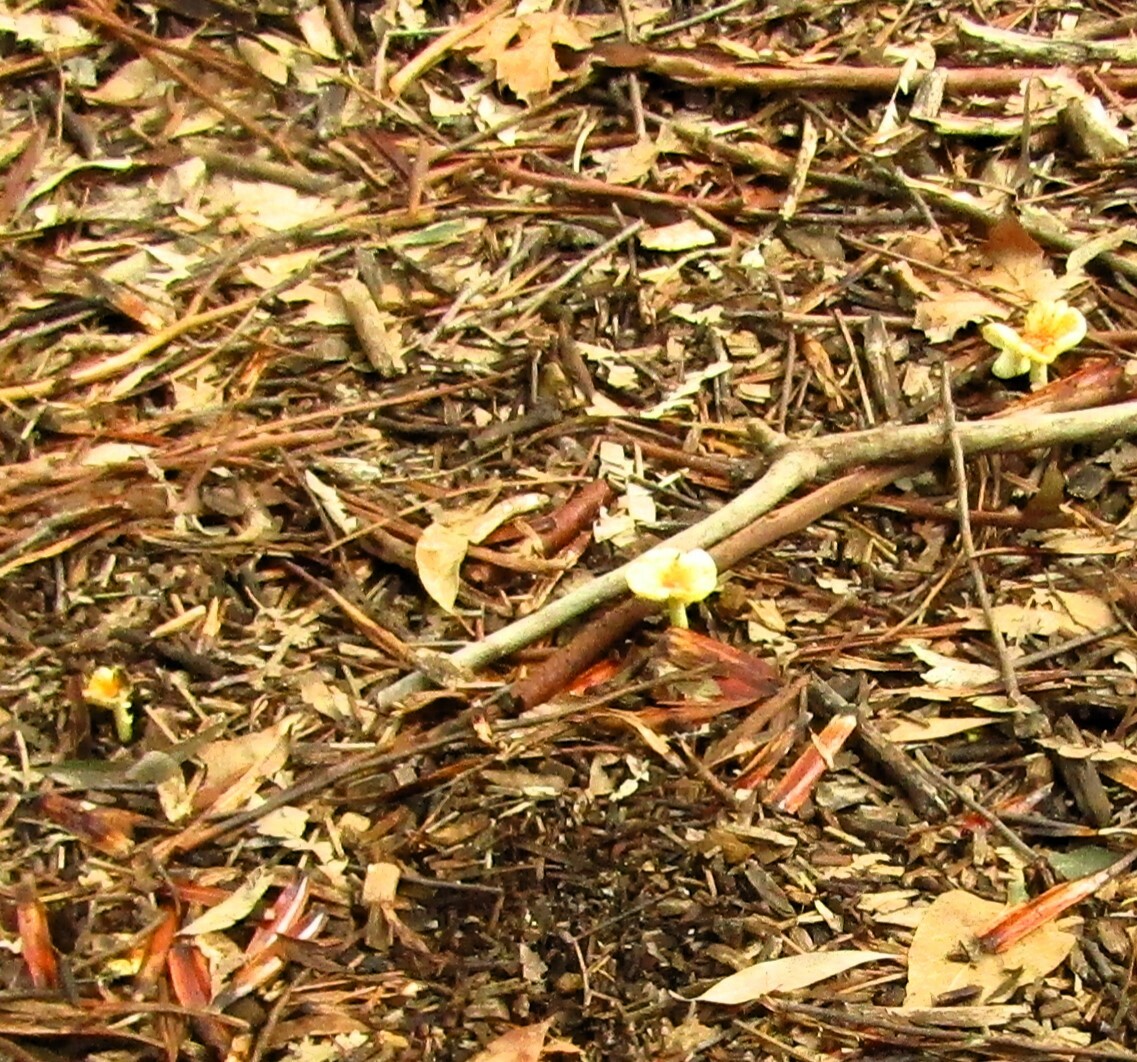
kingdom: Fungi
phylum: Basidiomycota
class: Agaricomycetes
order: Agaricales
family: Amanitaceae
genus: Amanita
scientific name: Amanita xanthocephala
